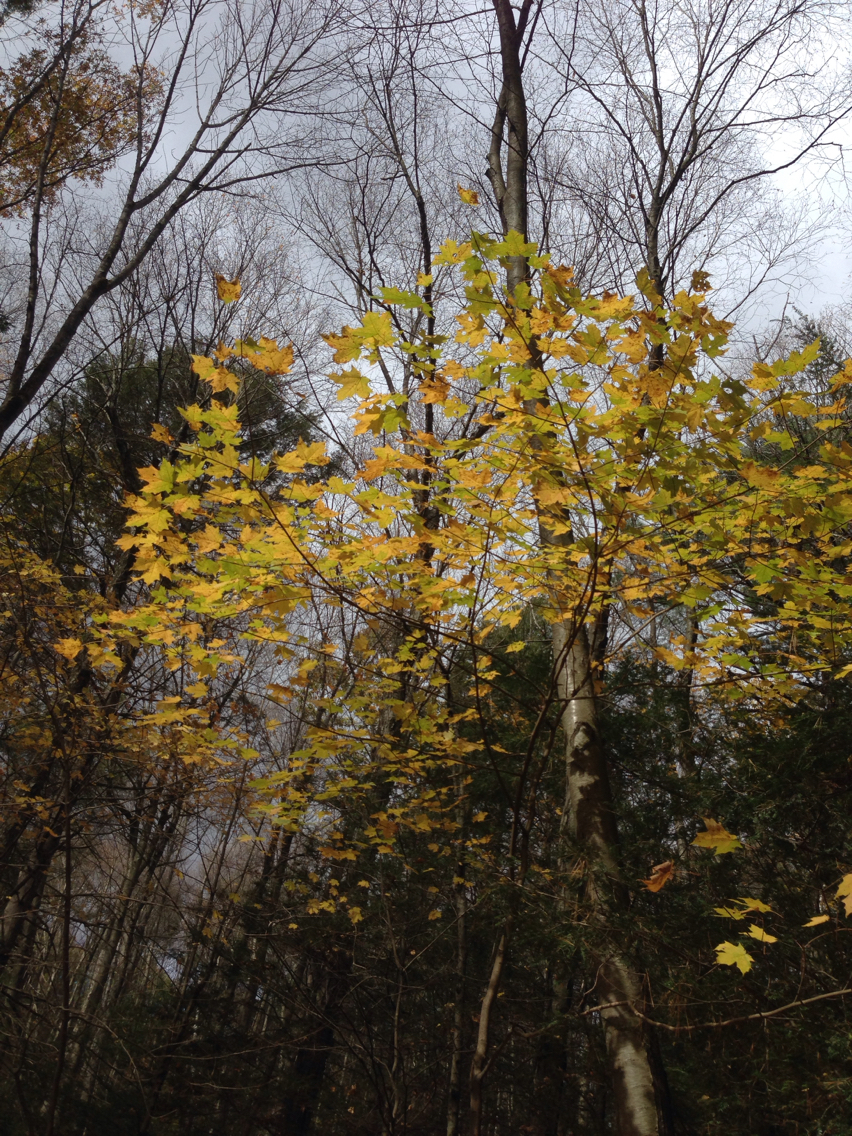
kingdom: Plantae
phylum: Tracheophyta
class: Magnoliopsida
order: Sapindales
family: Sapindaceae
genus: Acer
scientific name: Acer saccharum
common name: Sugar maple
